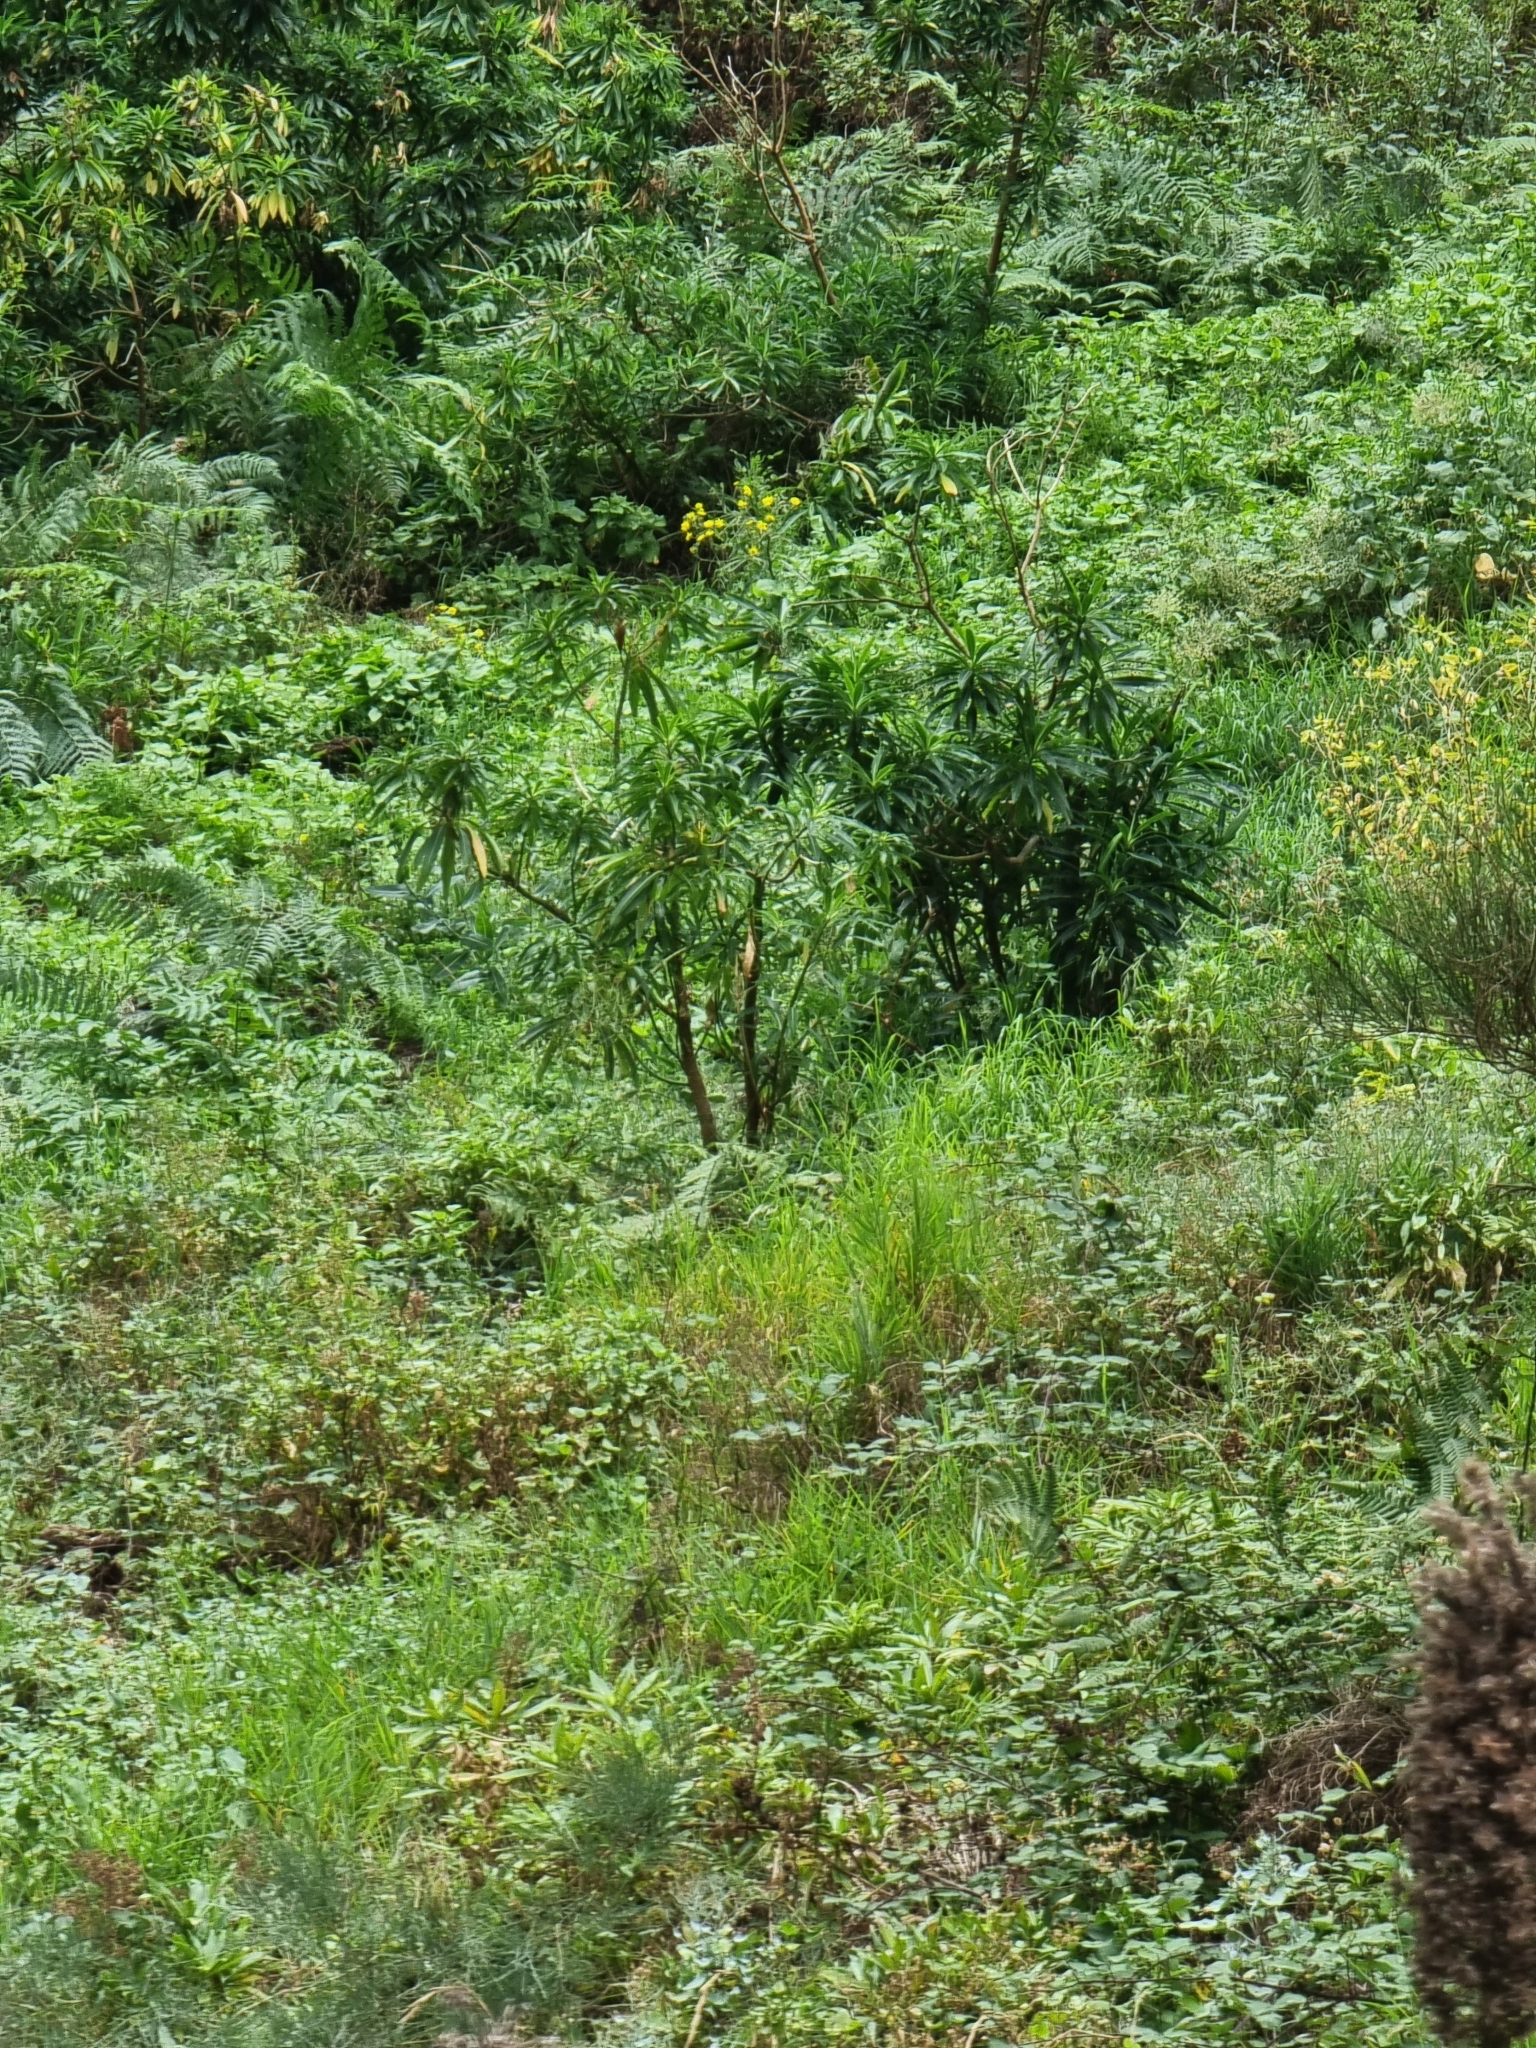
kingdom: Plantae
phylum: Tracheophyta
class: Magnoliopsida
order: Malpighiales
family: Euphorbiaceae
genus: Euphorbia
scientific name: Euphorbia mellifera
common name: Canary spurge
